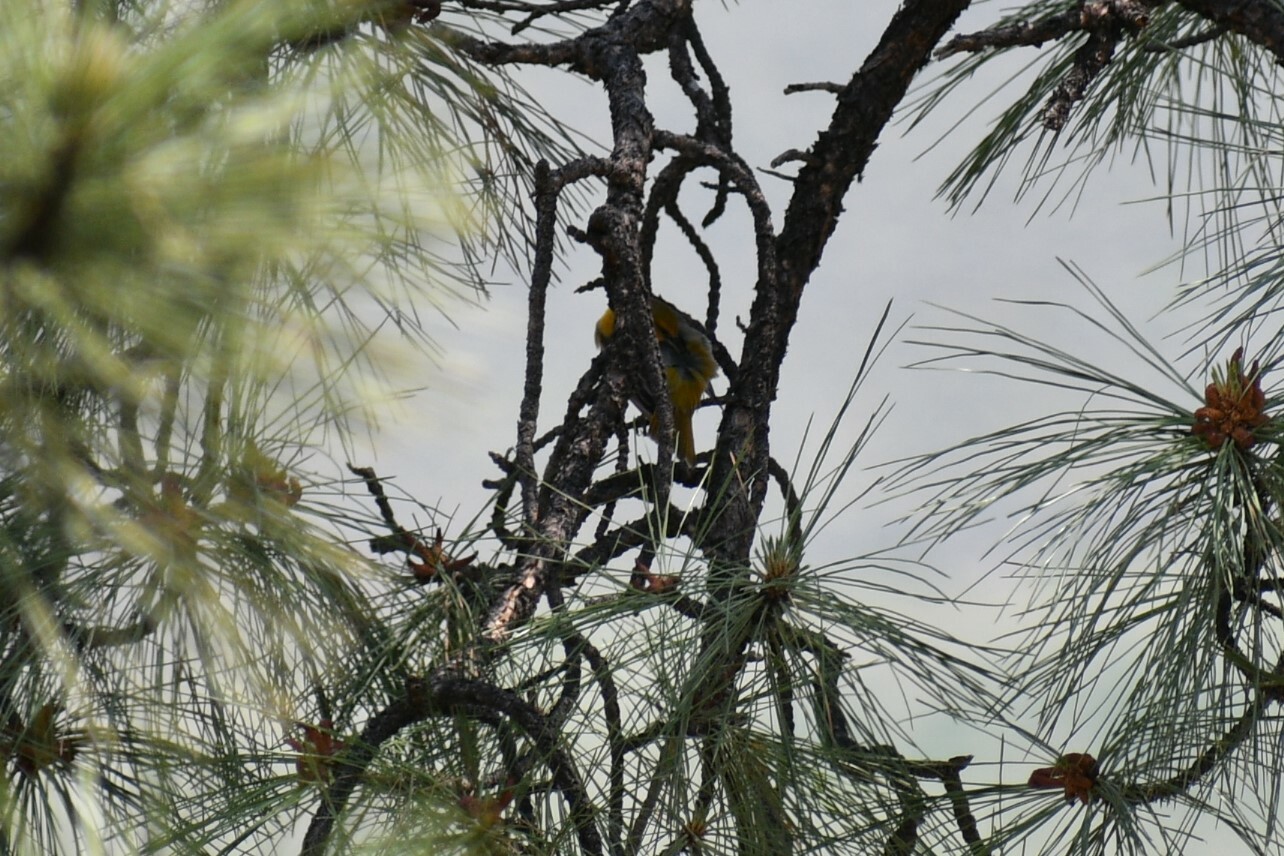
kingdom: Animalia
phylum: Chordata
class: Aves
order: Passeriformes
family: Icteridae
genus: Icterus
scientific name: Icterus bullockii
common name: Bullock's oriole
